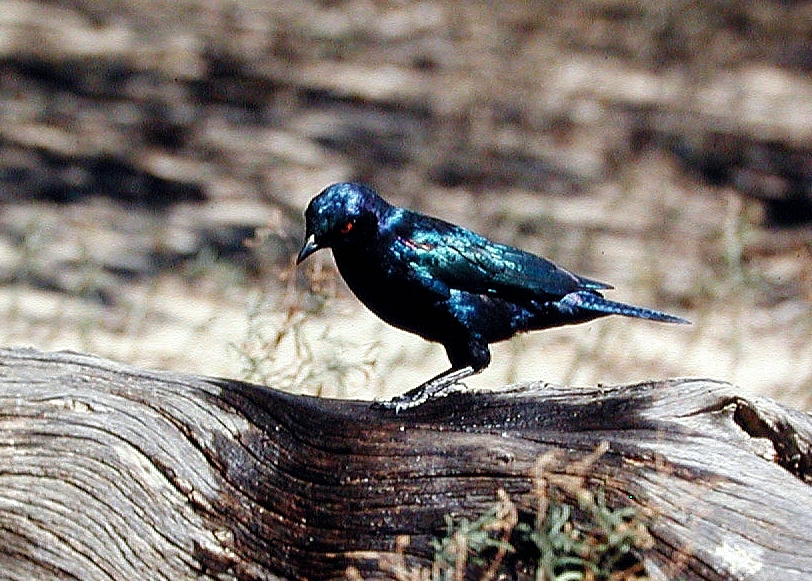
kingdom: Animalia
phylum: Chordata
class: Aves
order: Passeriformes
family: Sturnidae
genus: Lamprotornis
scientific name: Lamprotornis nitens
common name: Cape starling
